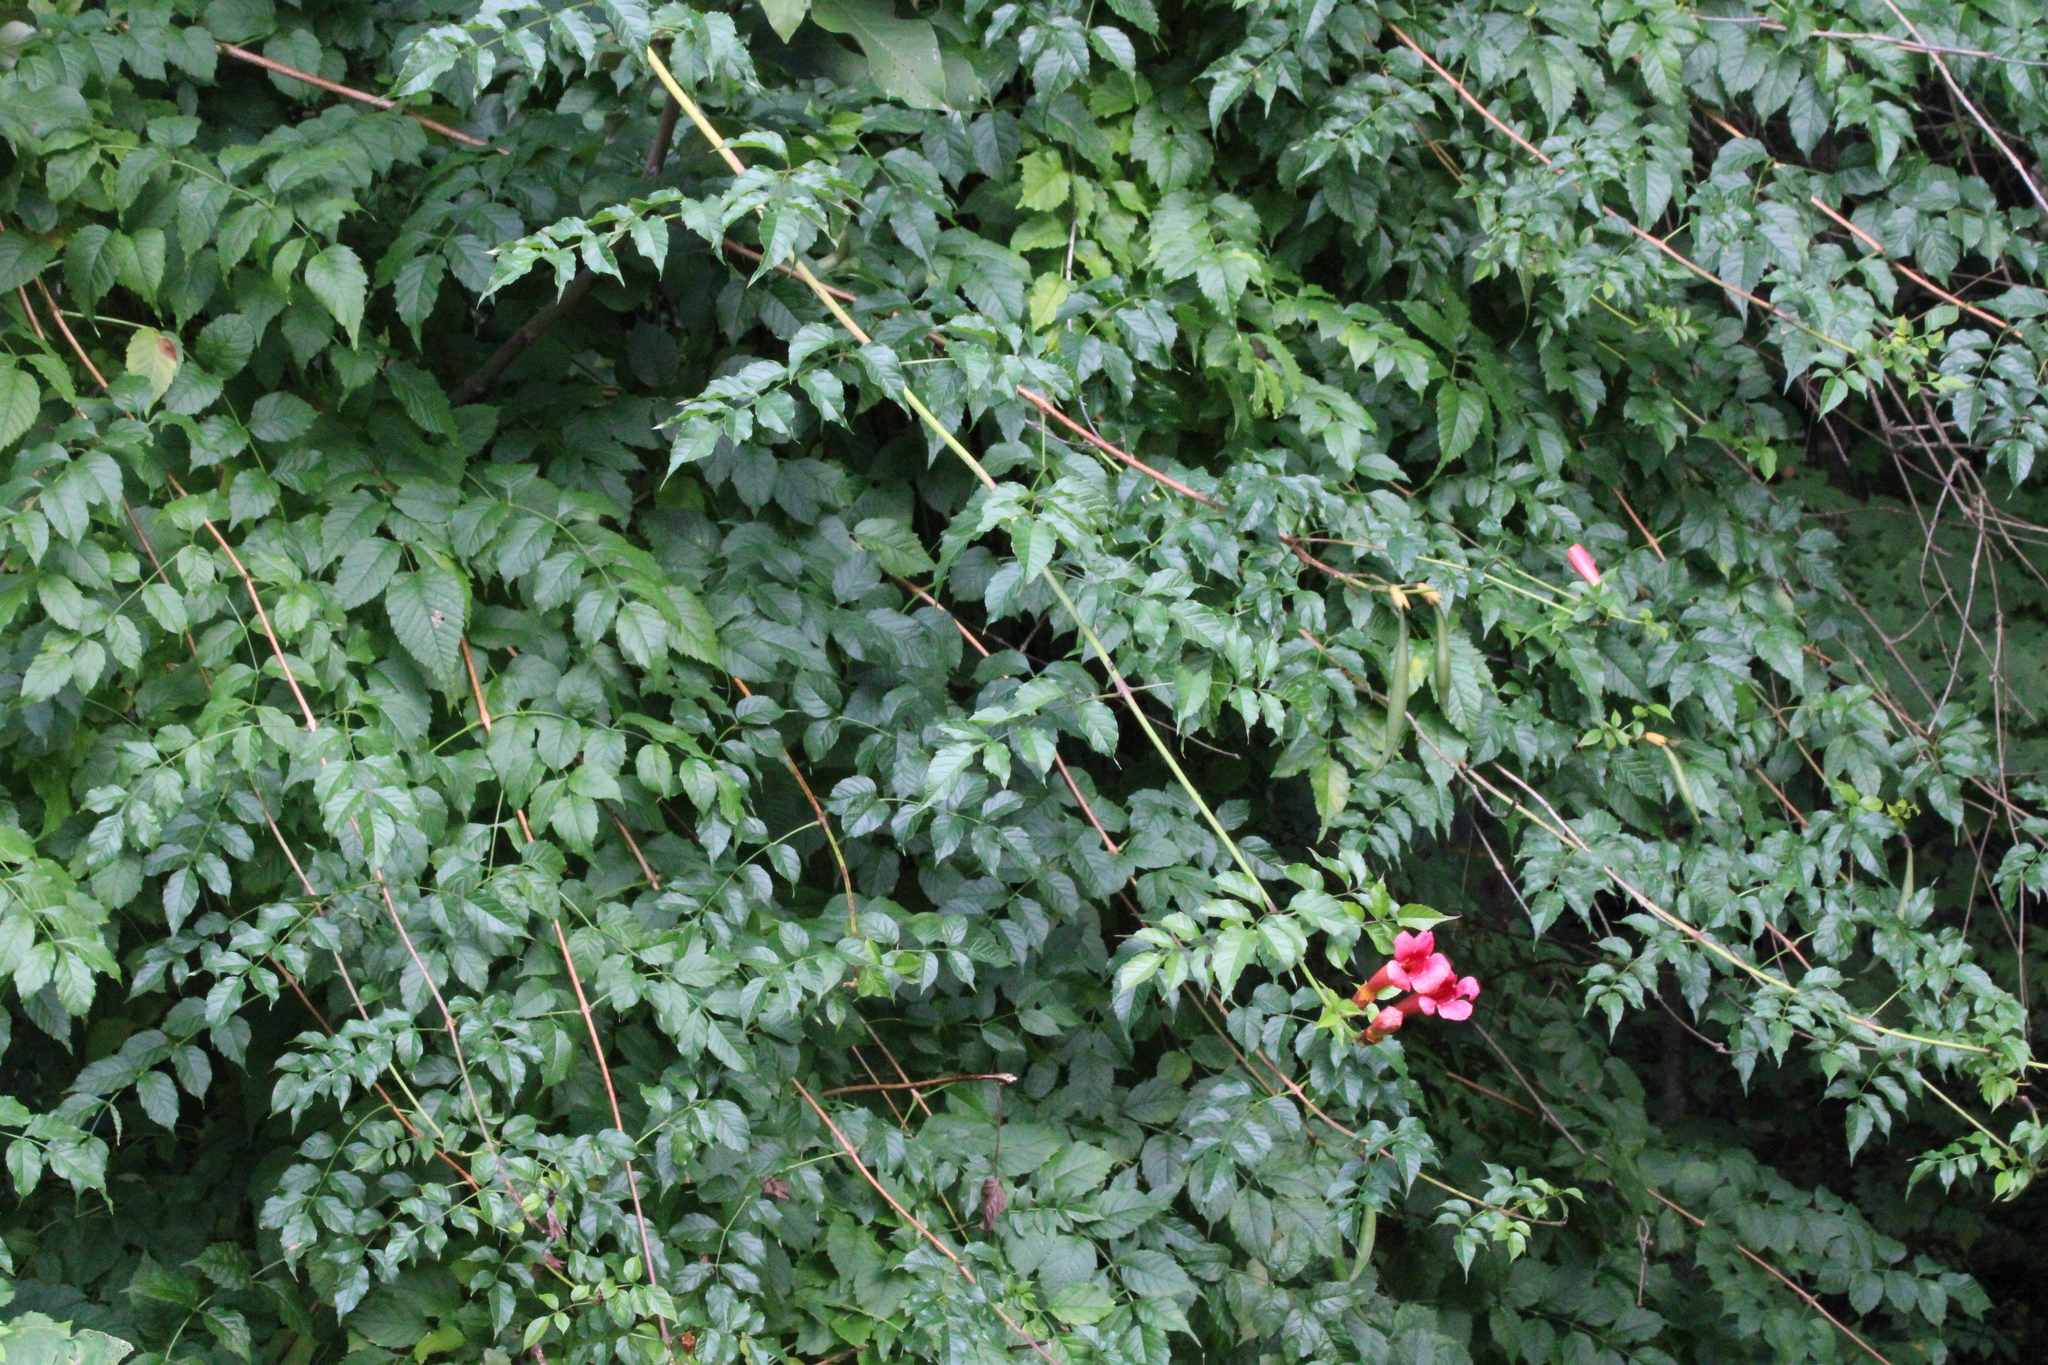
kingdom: Plantae
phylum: Tracheophyta
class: Magnoliopsida
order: Lamiales
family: Bignoniaceae
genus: Campsis
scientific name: Campsis radicans
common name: Trumpet-creeper
